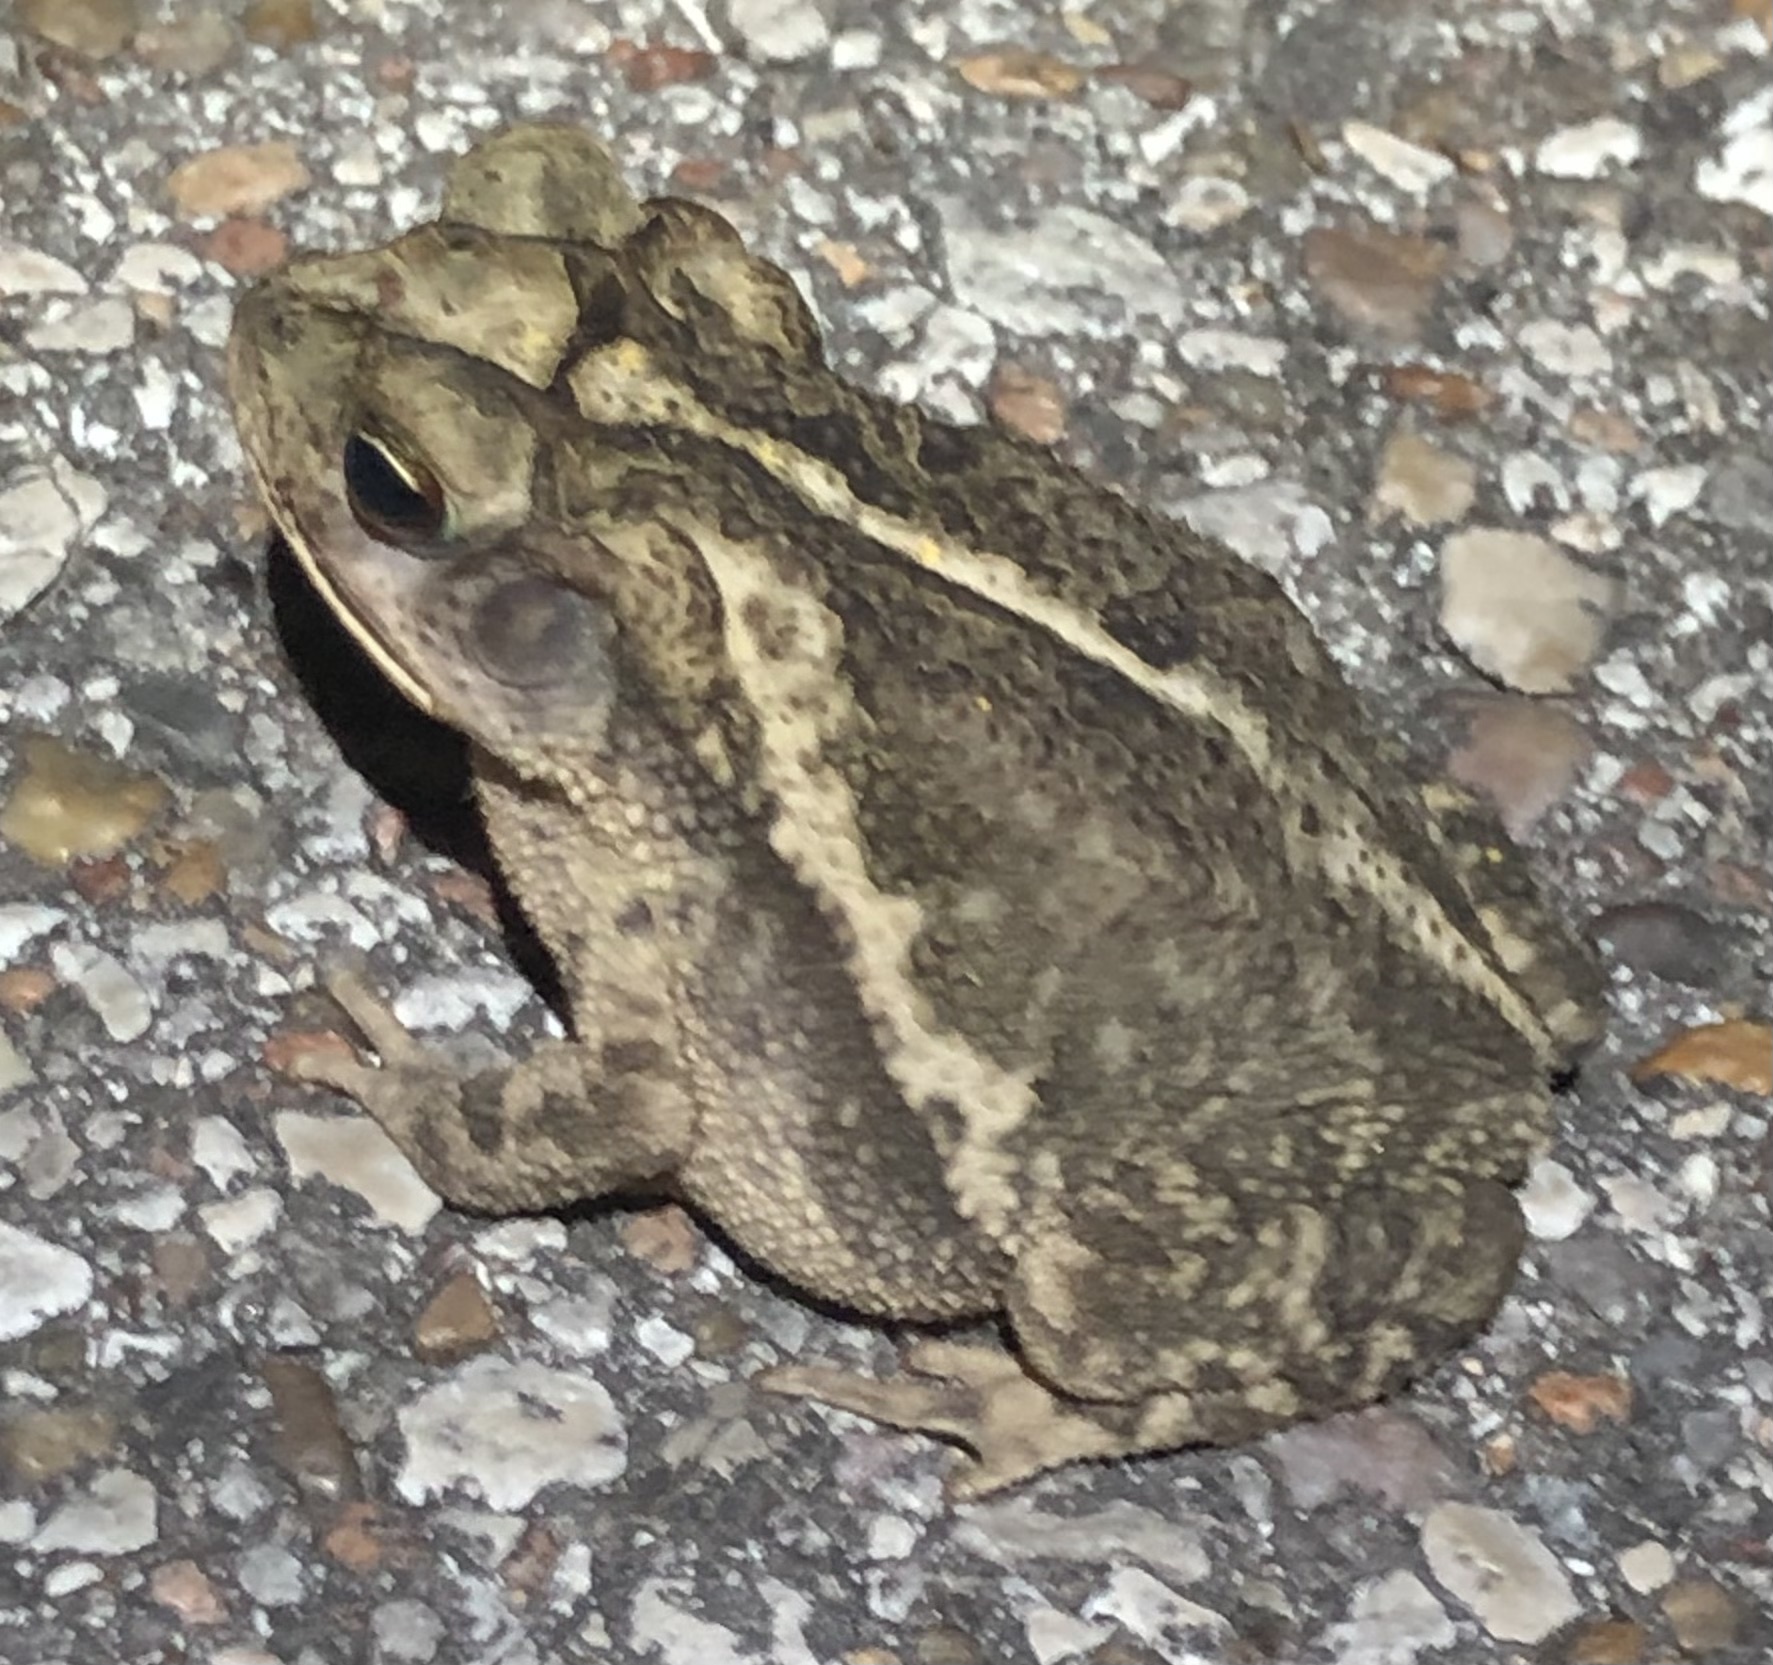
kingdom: Animalia
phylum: Chordata
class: Amphibia
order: Anura
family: Bufonidae
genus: Incilius
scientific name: Incilius nebulifer
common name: Gulf coast toad
